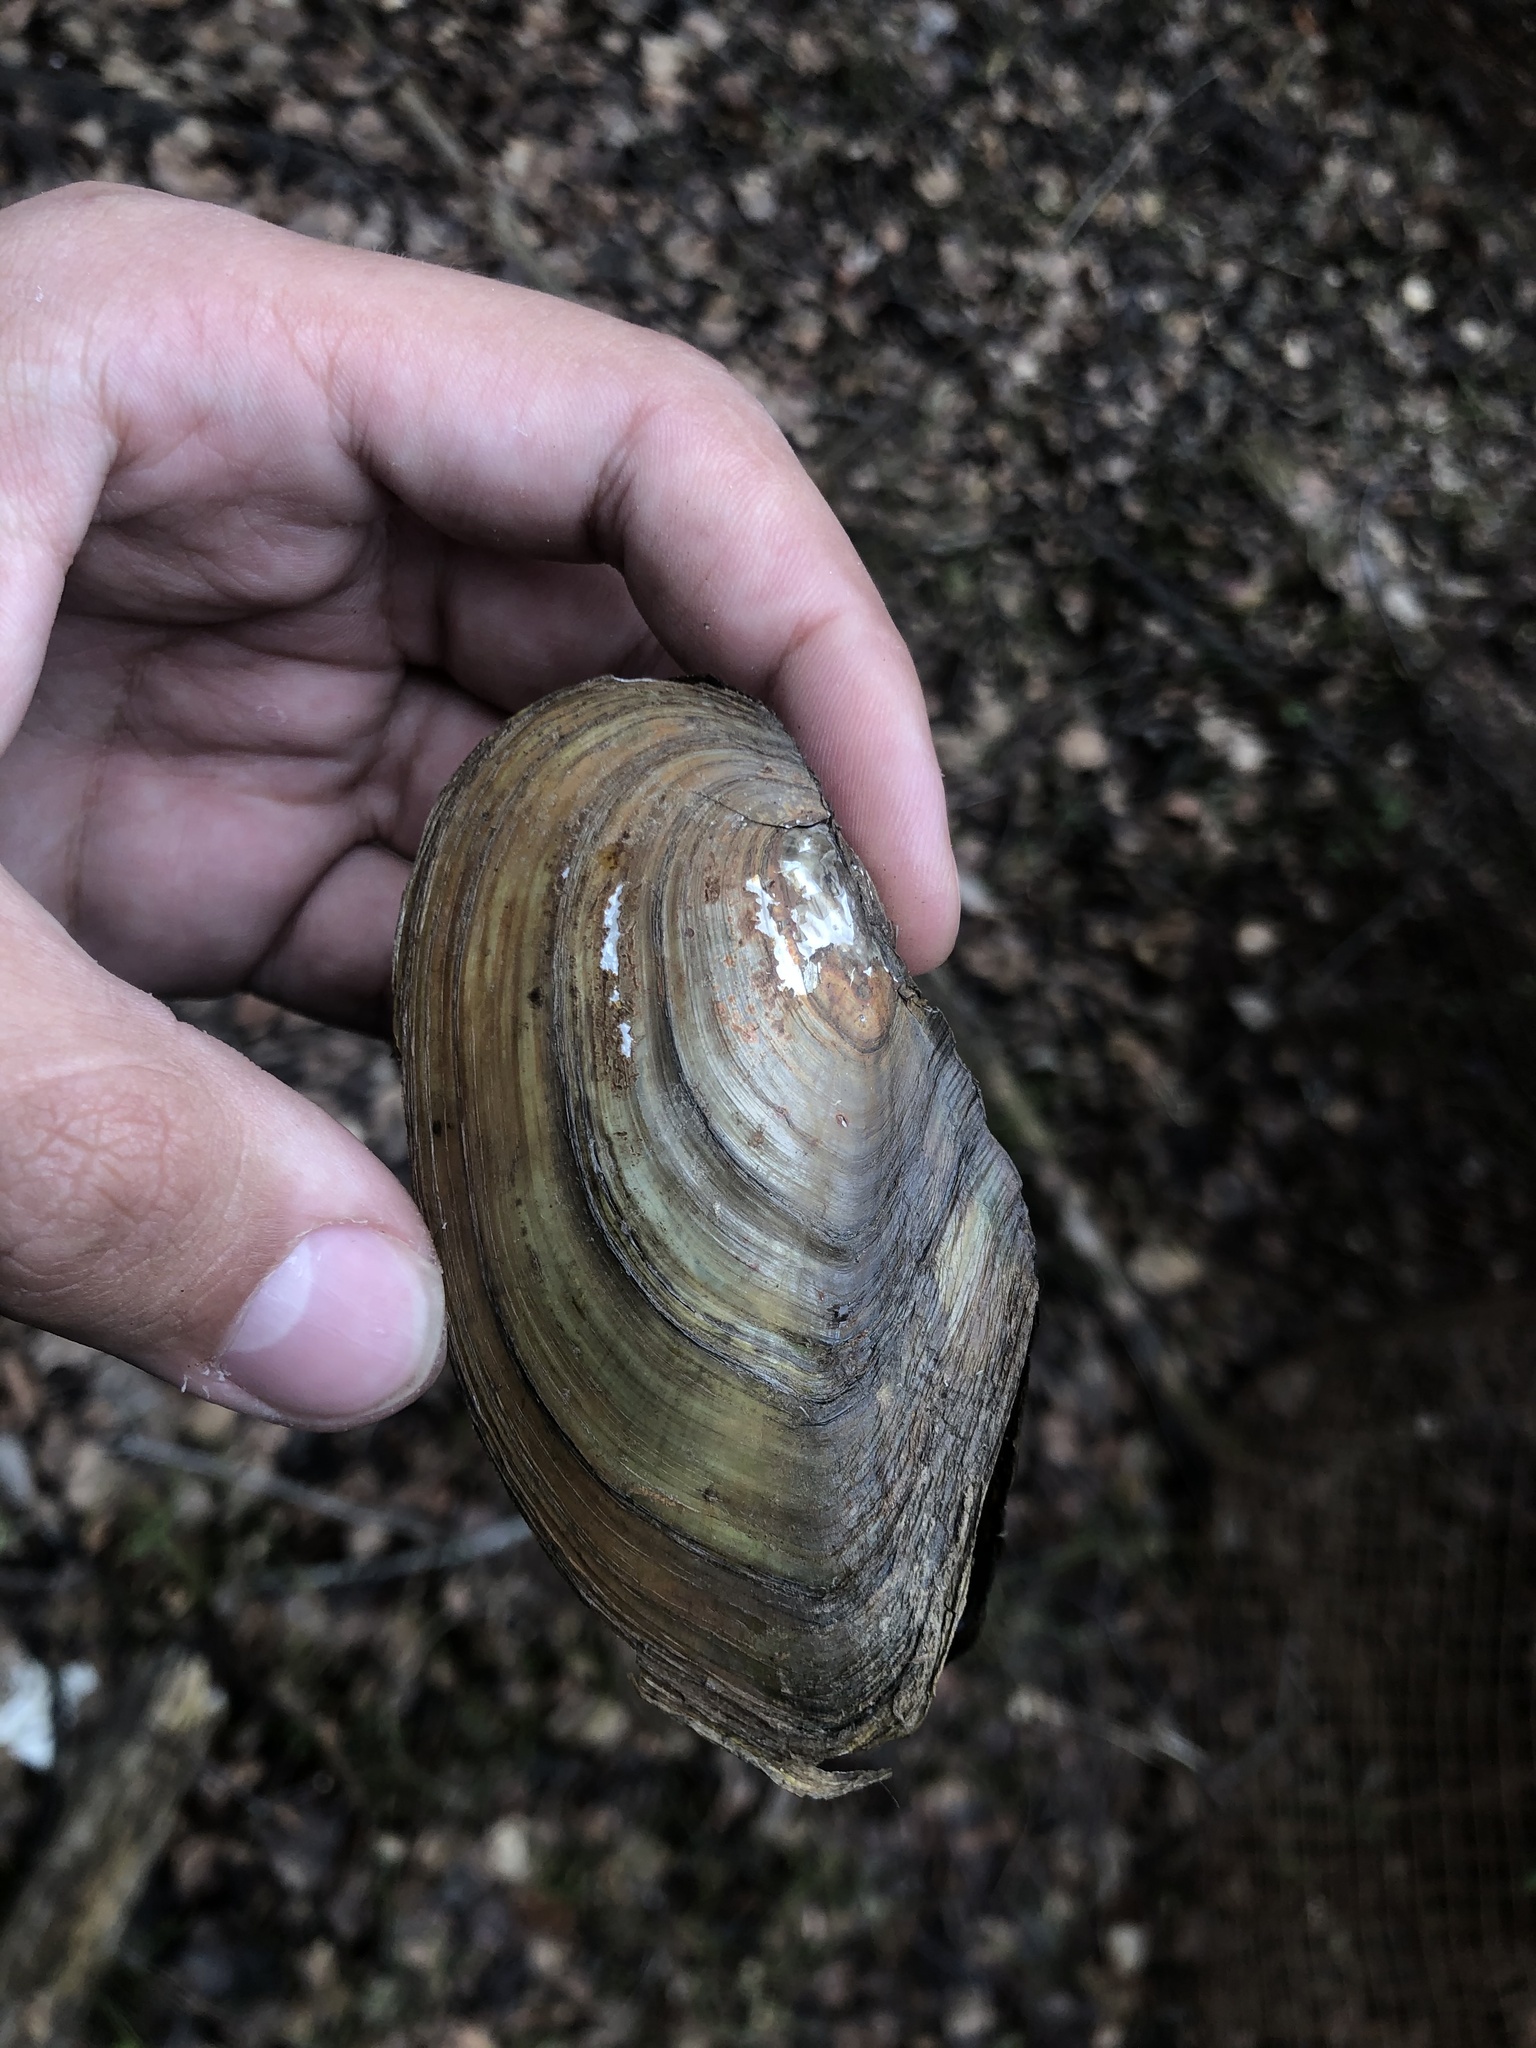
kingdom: Animalia
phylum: Mollusca
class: Bivalvia
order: Unionida
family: Unionidae
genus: Anodonta
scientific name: Anodonta cygnea
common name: Swan mussel
